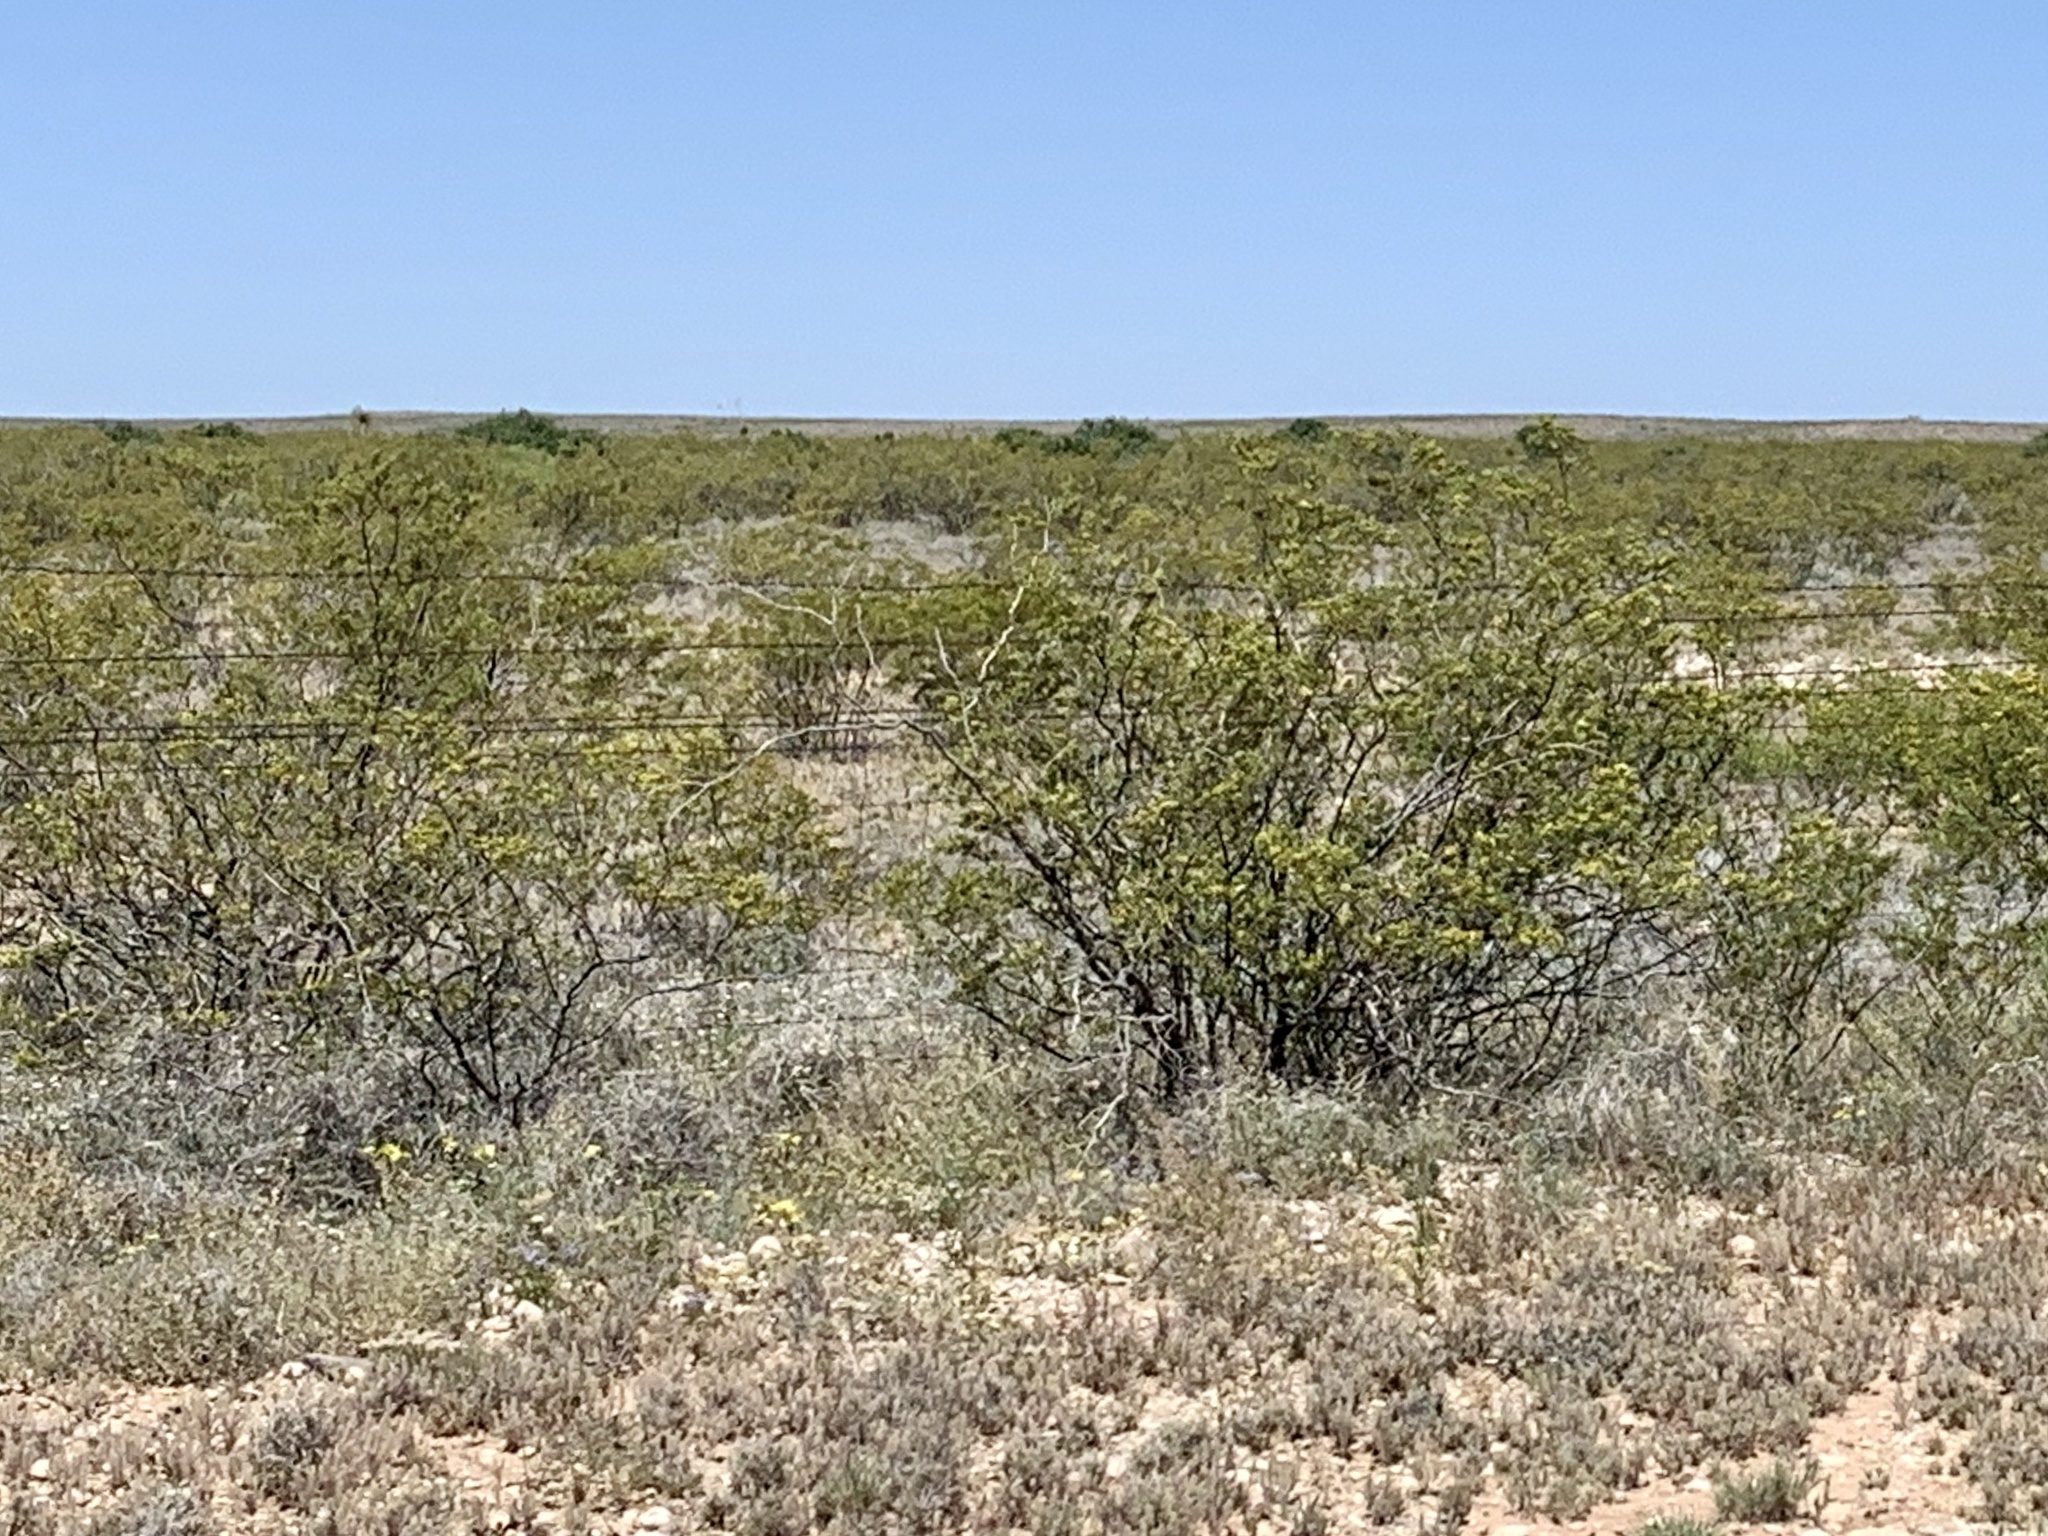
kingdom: Plantae
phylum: Tracheophyta
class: Magnoliopsida
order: Zygophyllales
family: Zygophyllaceae
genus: Larrea
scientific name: Larrea tridentata
